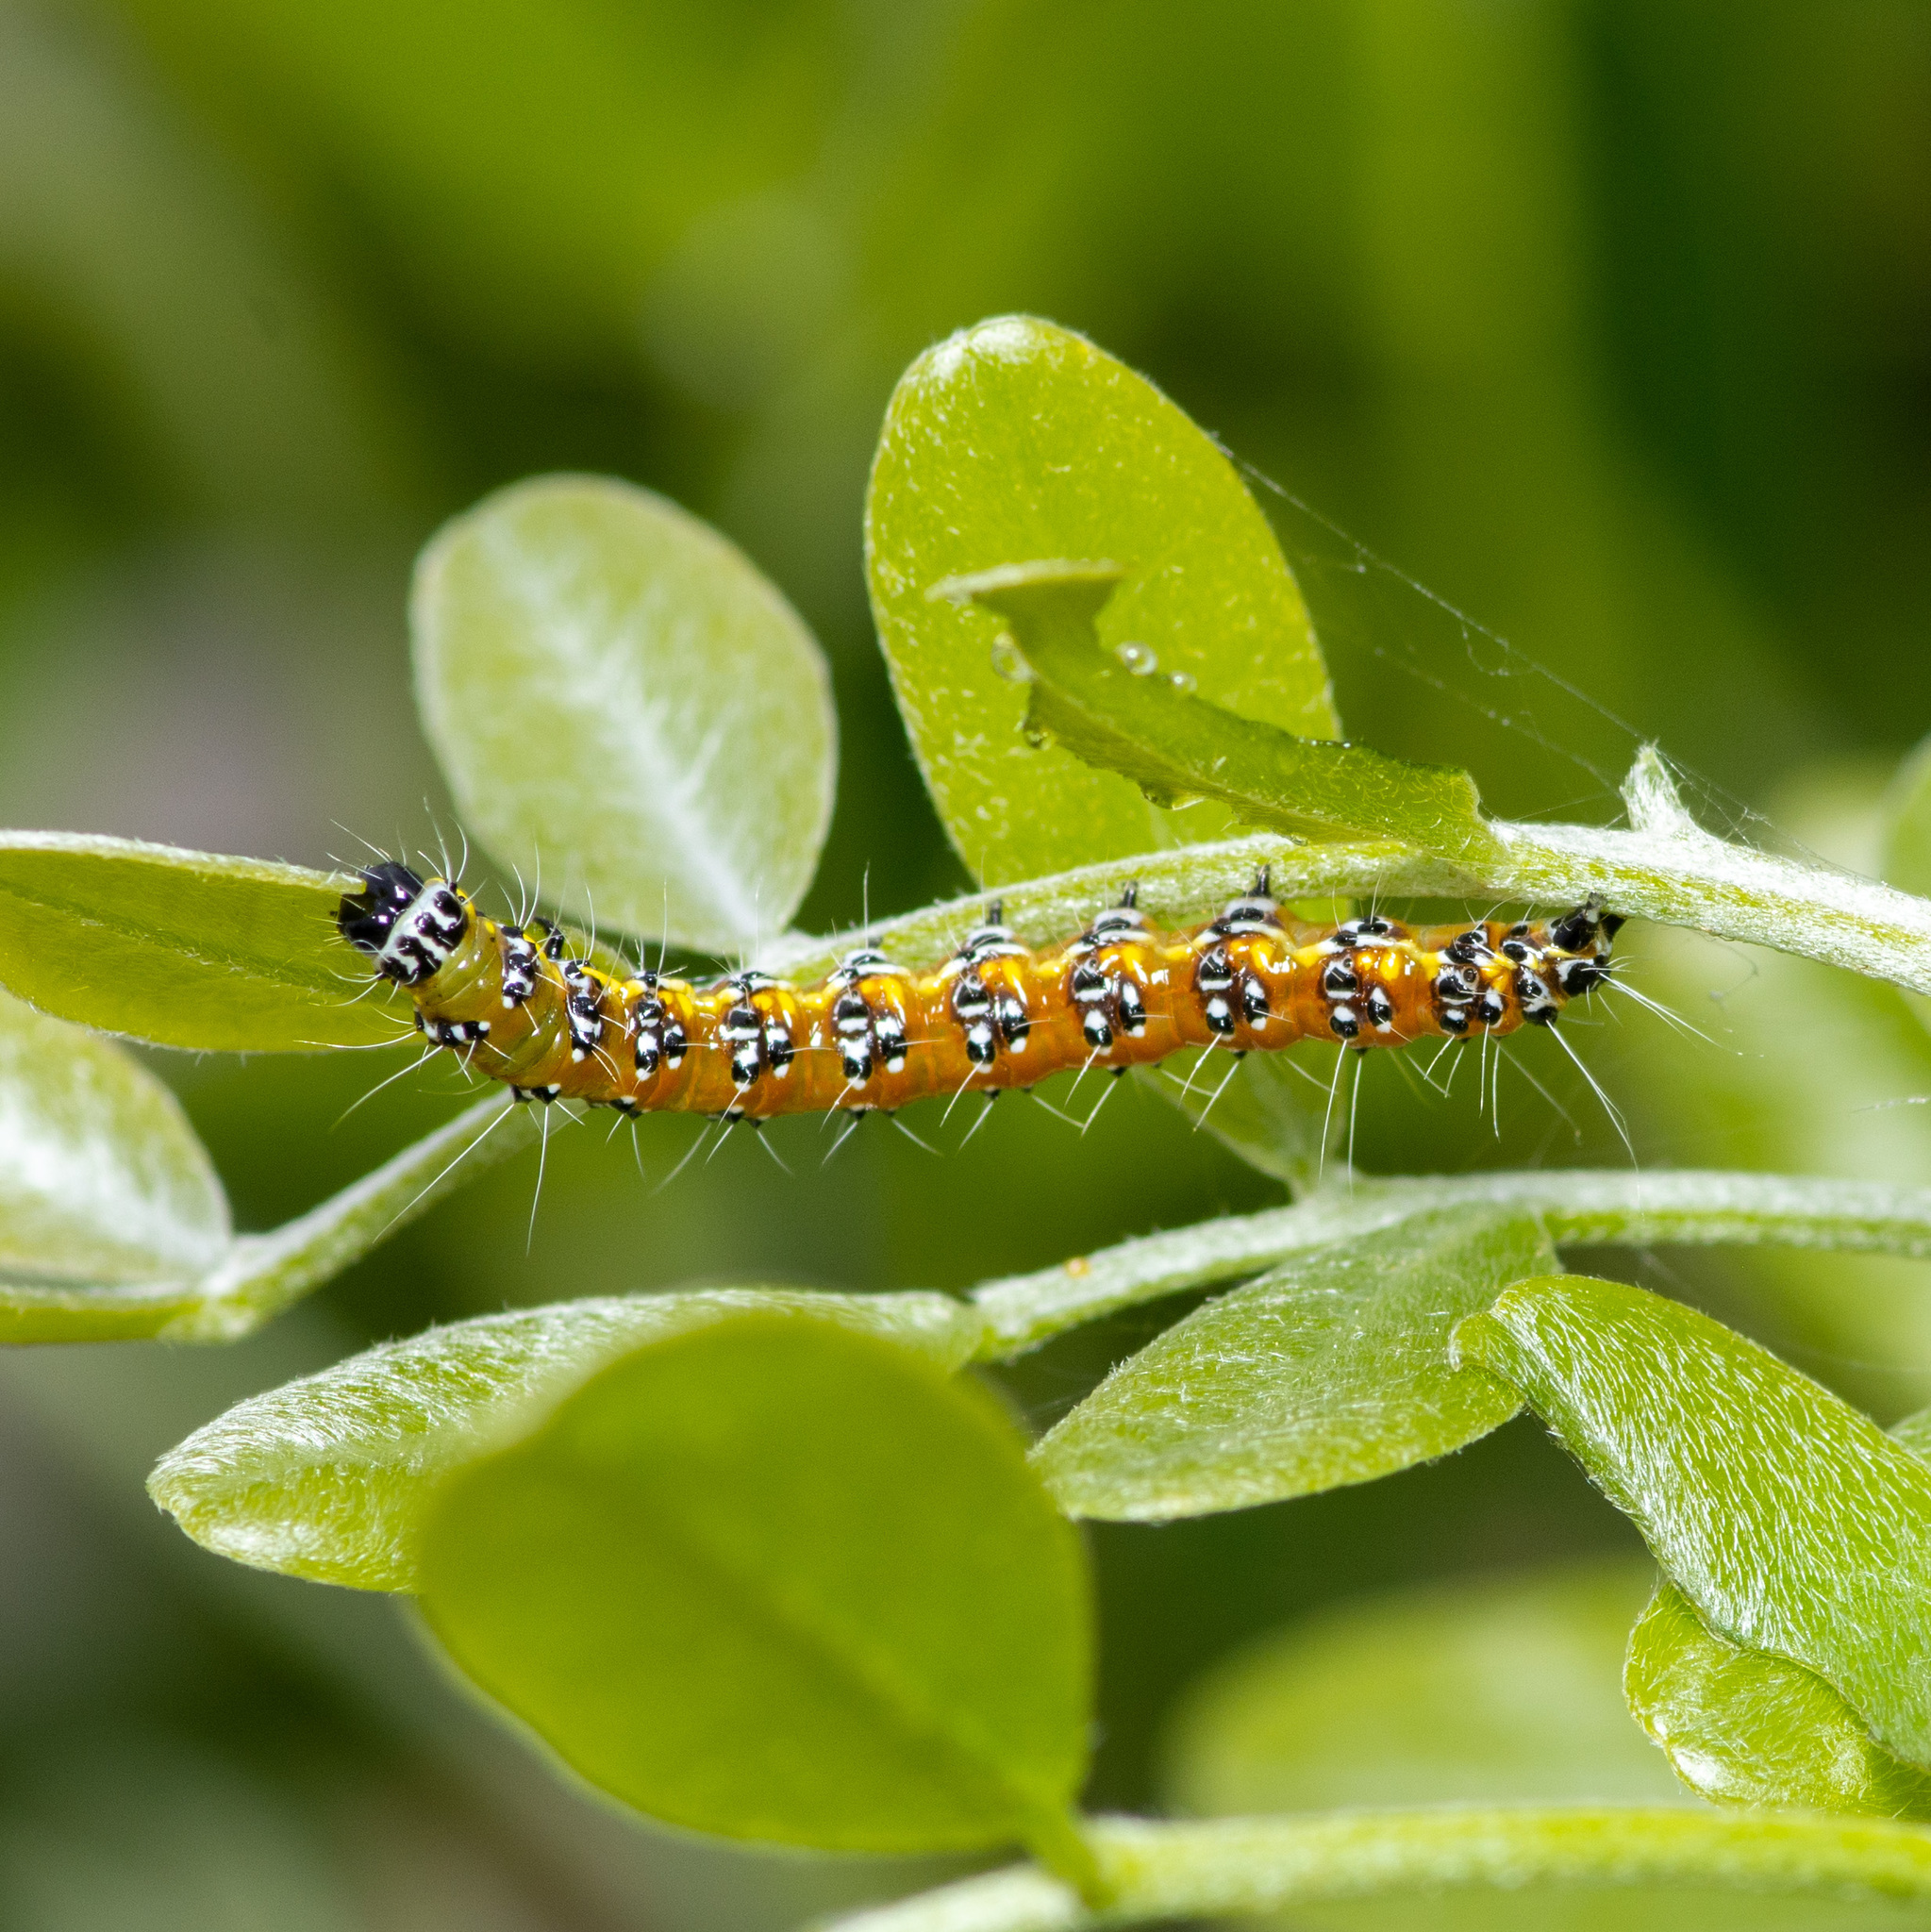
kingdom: Animalia
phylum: Arthropoda
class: Insecta
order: Lepidoptera
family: Crambidae
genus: Uresiphita
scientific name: Uresiphita reversalis
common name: Genista broom moth
